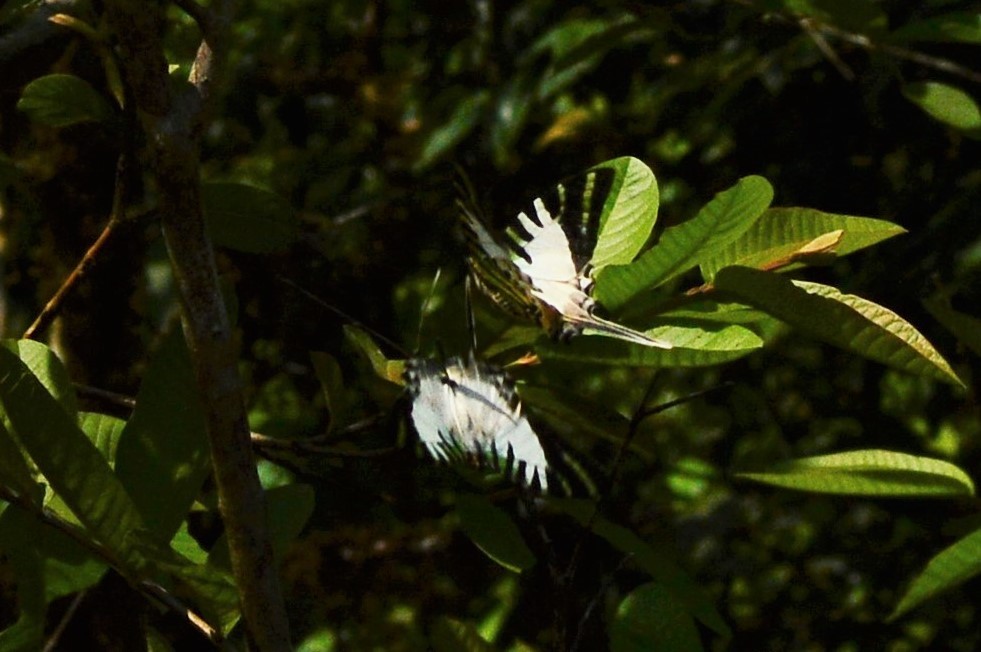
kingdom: Animalia
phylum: Arthropoda
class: Insecta
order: Lepidoptera
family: Papilionidae
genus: Graphium
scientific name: Graphium antiphates
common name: Fivebar swordtail
